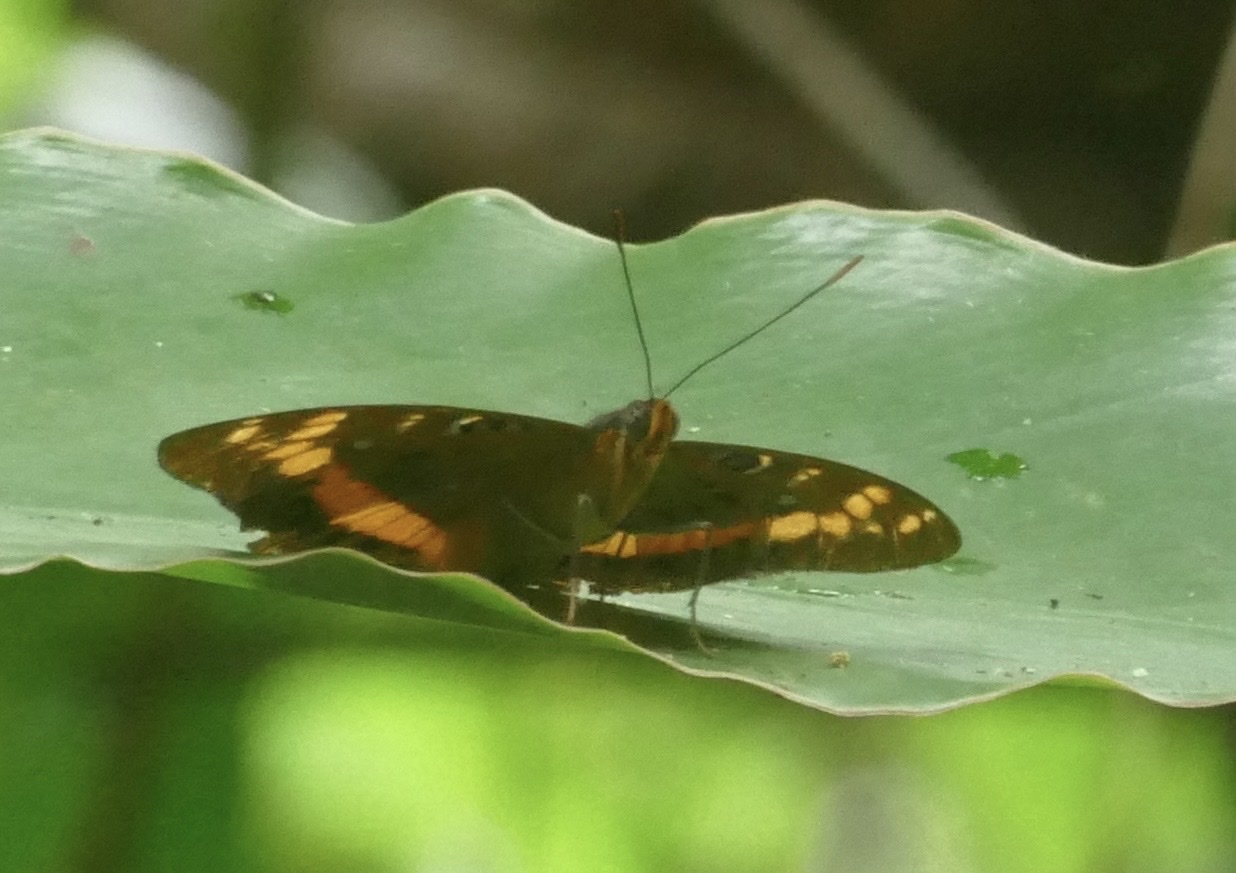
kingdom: Animalia
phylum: Arthropoda
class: Insecta
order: Lepidoptera
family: Nymphalidae
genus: Lexias
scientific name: Lexias aeropa
